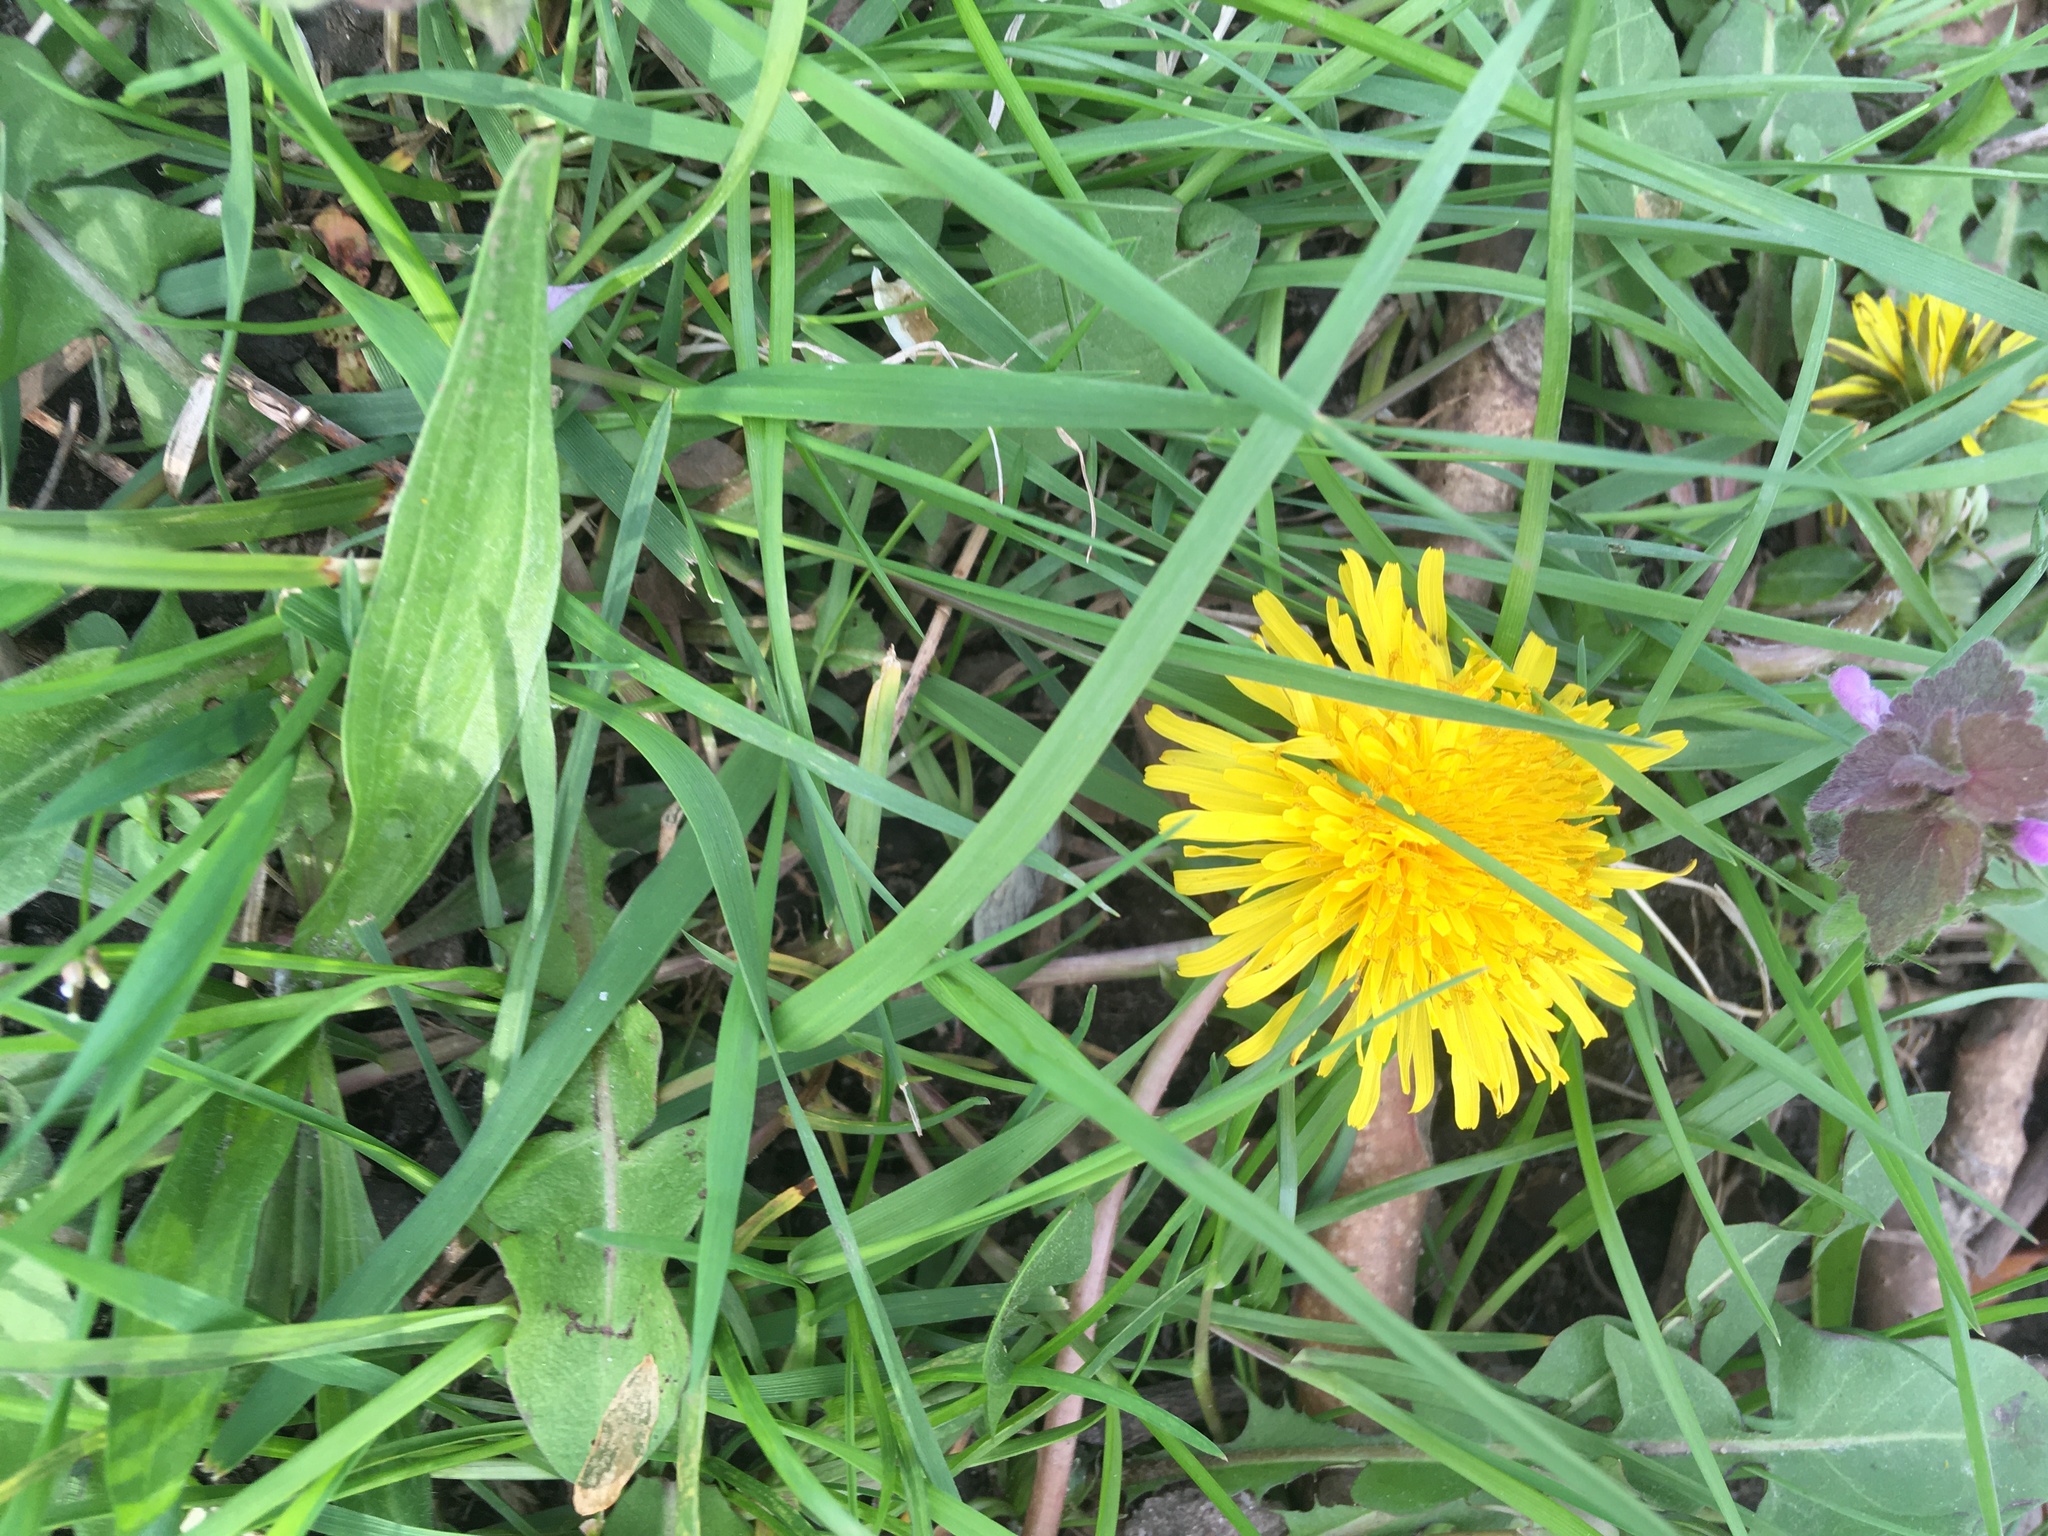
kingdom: Plantae
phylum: Tracheophyta
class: Magnoliopsida
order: Asterales
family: Asteraceae
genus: Taraxacum
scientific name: Taraxacum officinale
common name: Common dandelion
